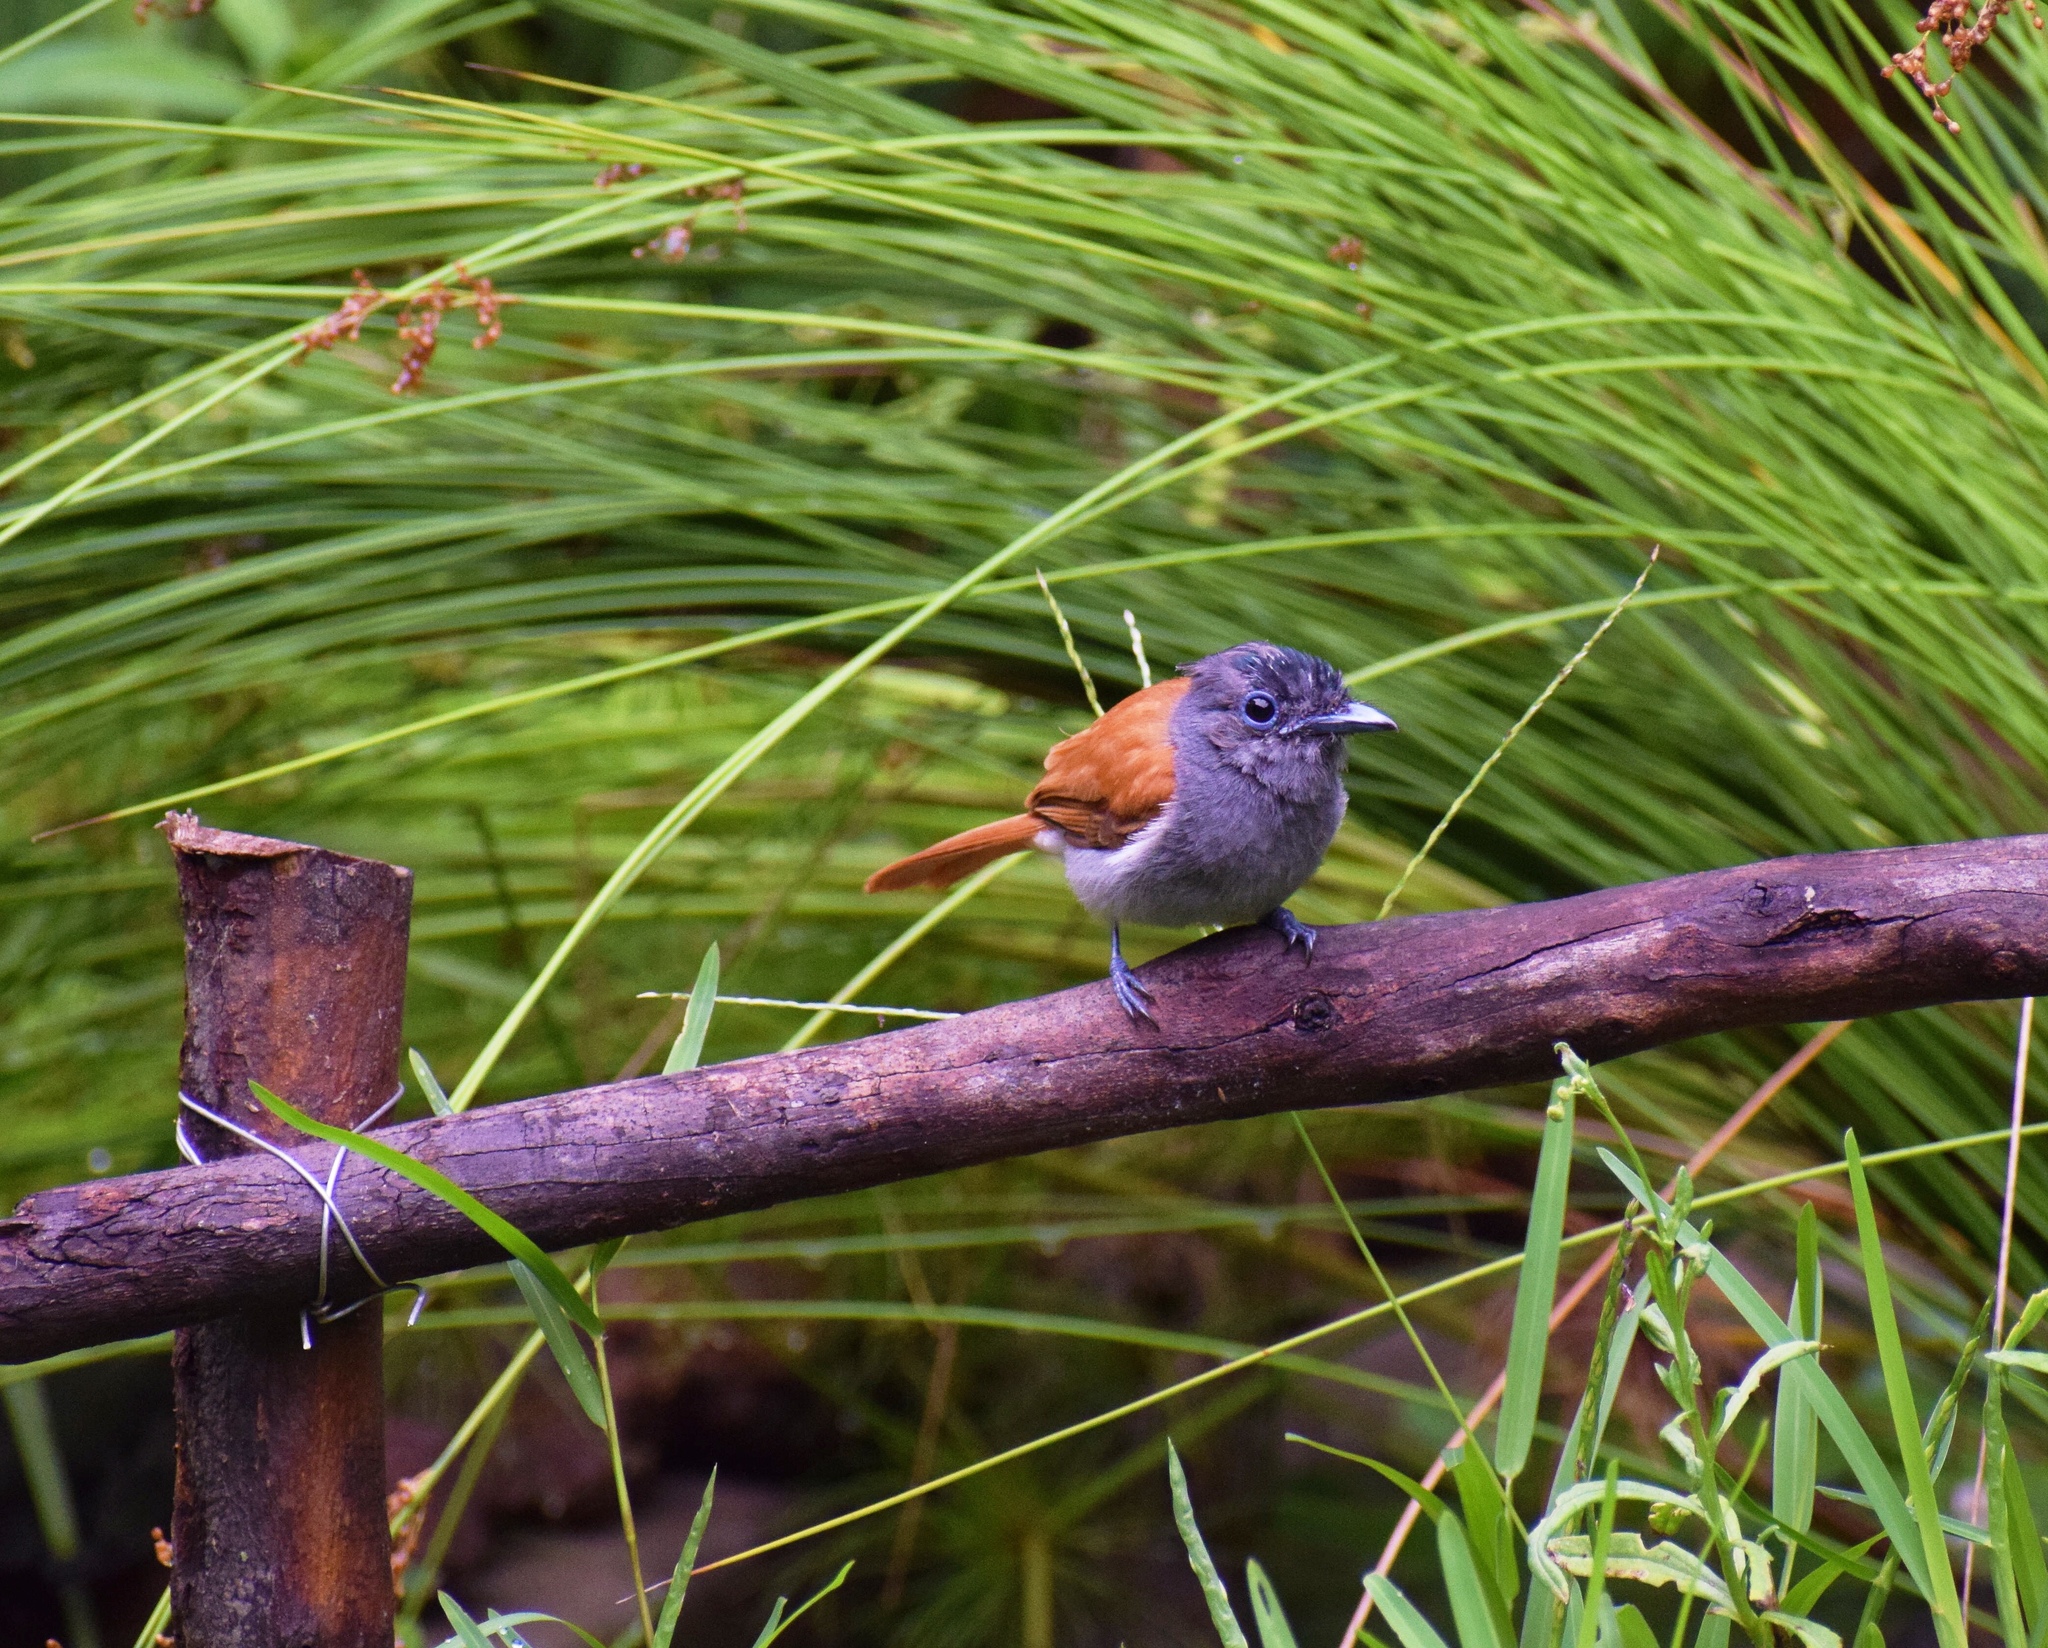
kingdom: Animalia
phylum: Chordata
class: Aves
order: Passeriformes
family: Monarchidae
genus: Terpsiphone
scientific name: Terpsiphone viridis
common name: African paradise flycatcher
